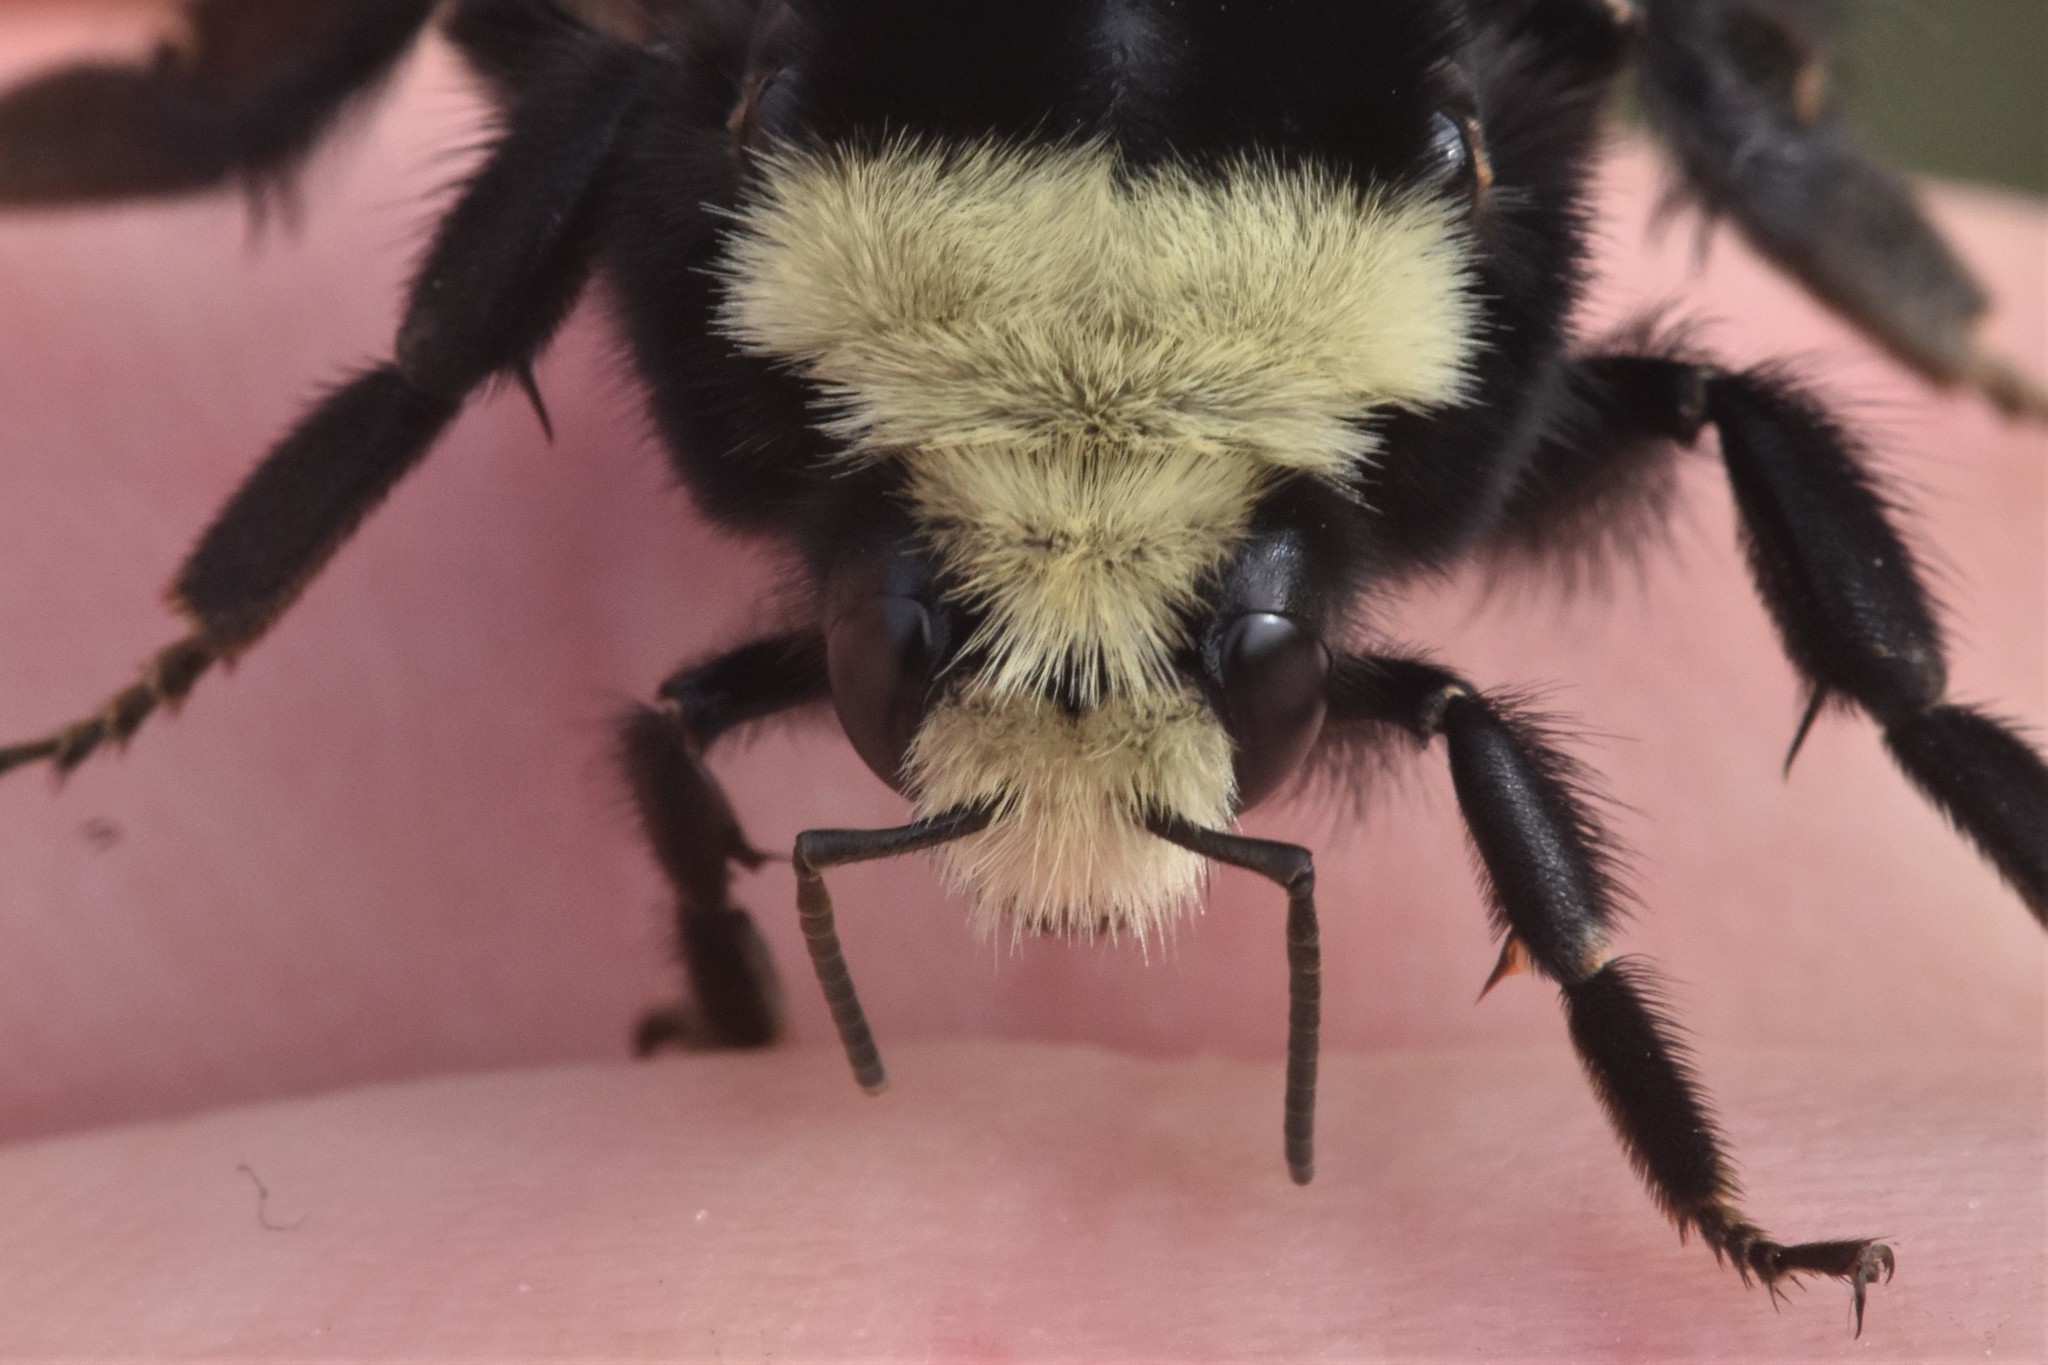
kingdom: Animalia
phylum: Arthropoda
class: Insecta
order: Hymenoptera
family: Apidae
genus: Bombus
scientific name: Bombus vosnesenskii
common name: Vosnesensky bumble bee
